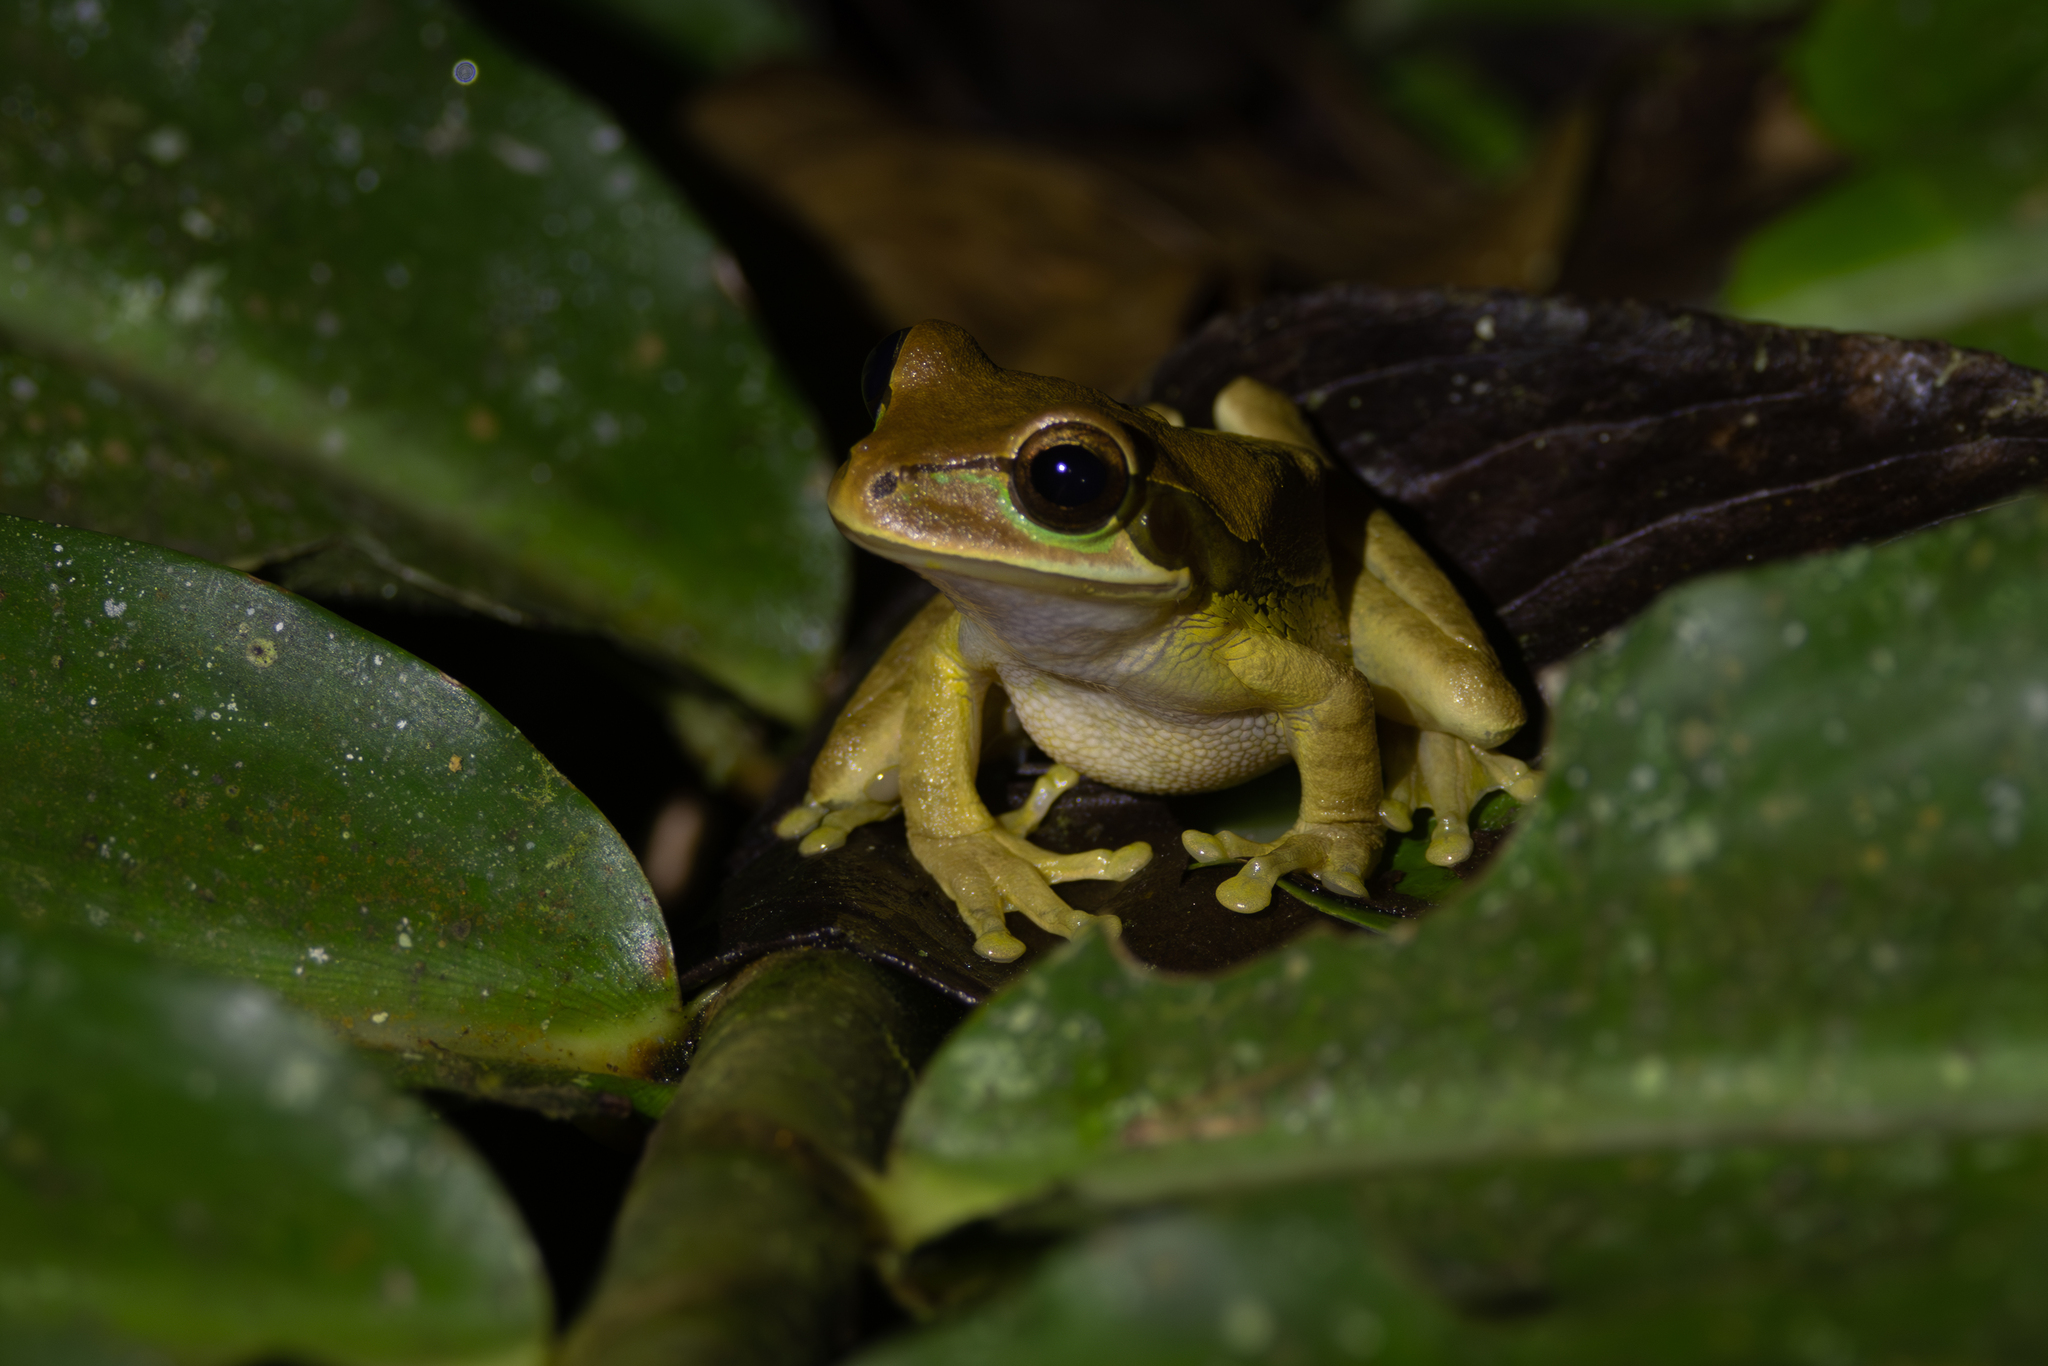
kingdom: Animalia
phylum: Chordata
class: Amphibia
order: Anura
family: Hylidae
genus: Smilisca
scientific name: Smilisca phaeota
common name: Central american smilisca
